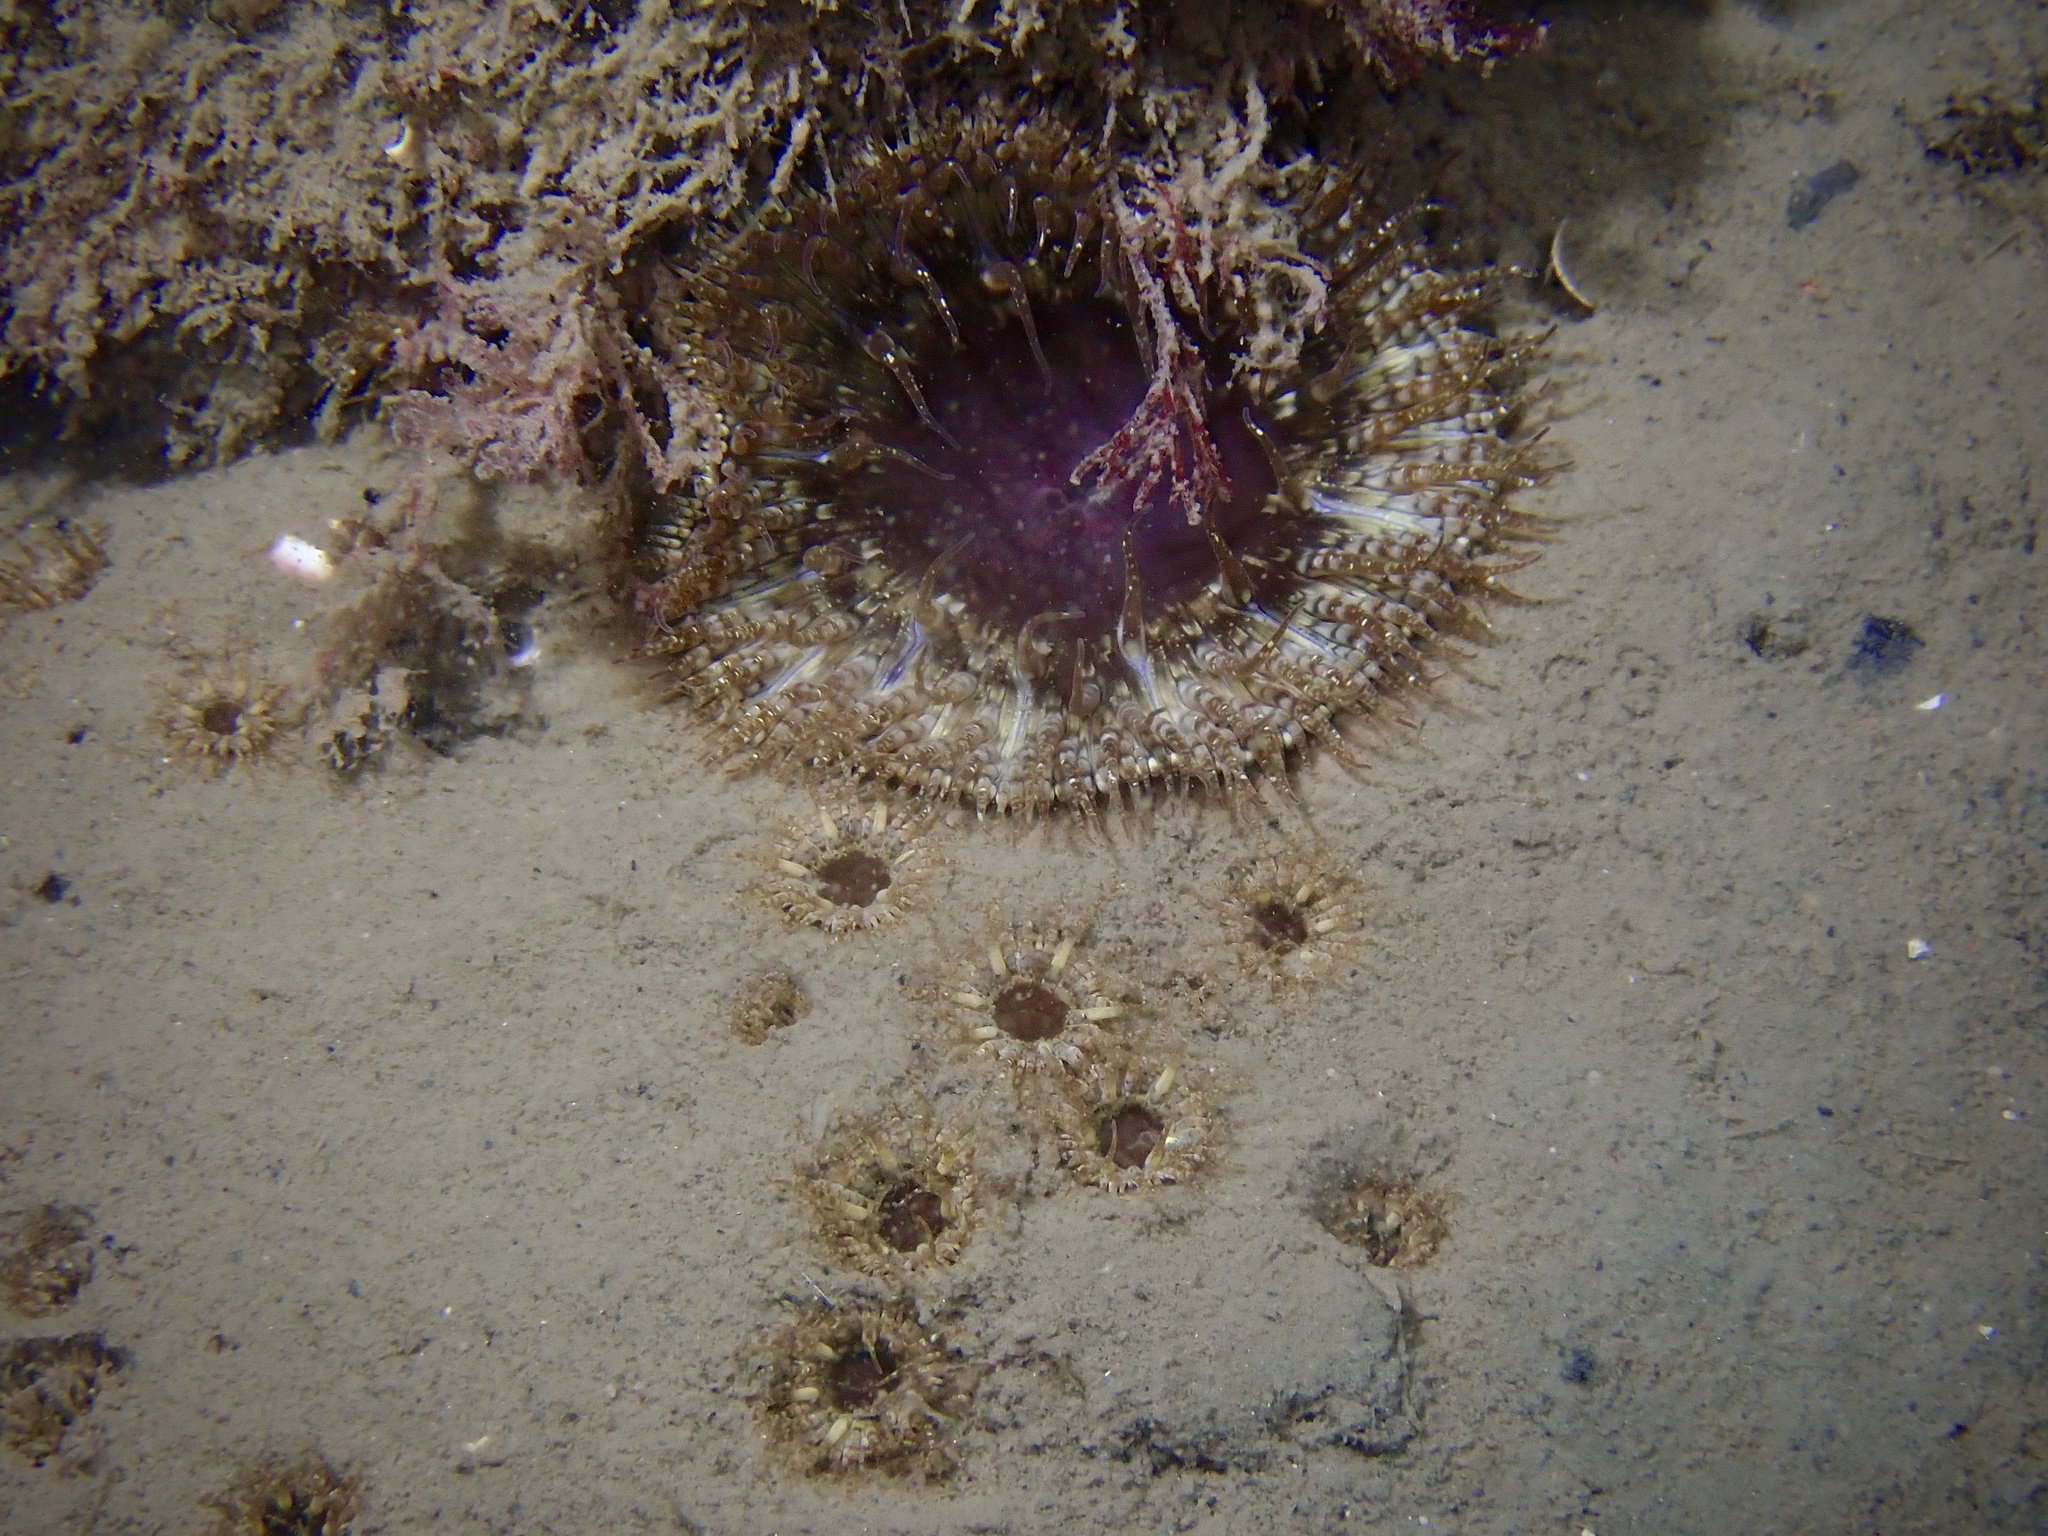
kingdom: Animalia
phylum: Cnidaria
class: Anthozoa
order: Actiniaria
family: Sagartiidae
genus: Cereus
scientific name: Cereus pedunculatus
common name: Daisy anemone
